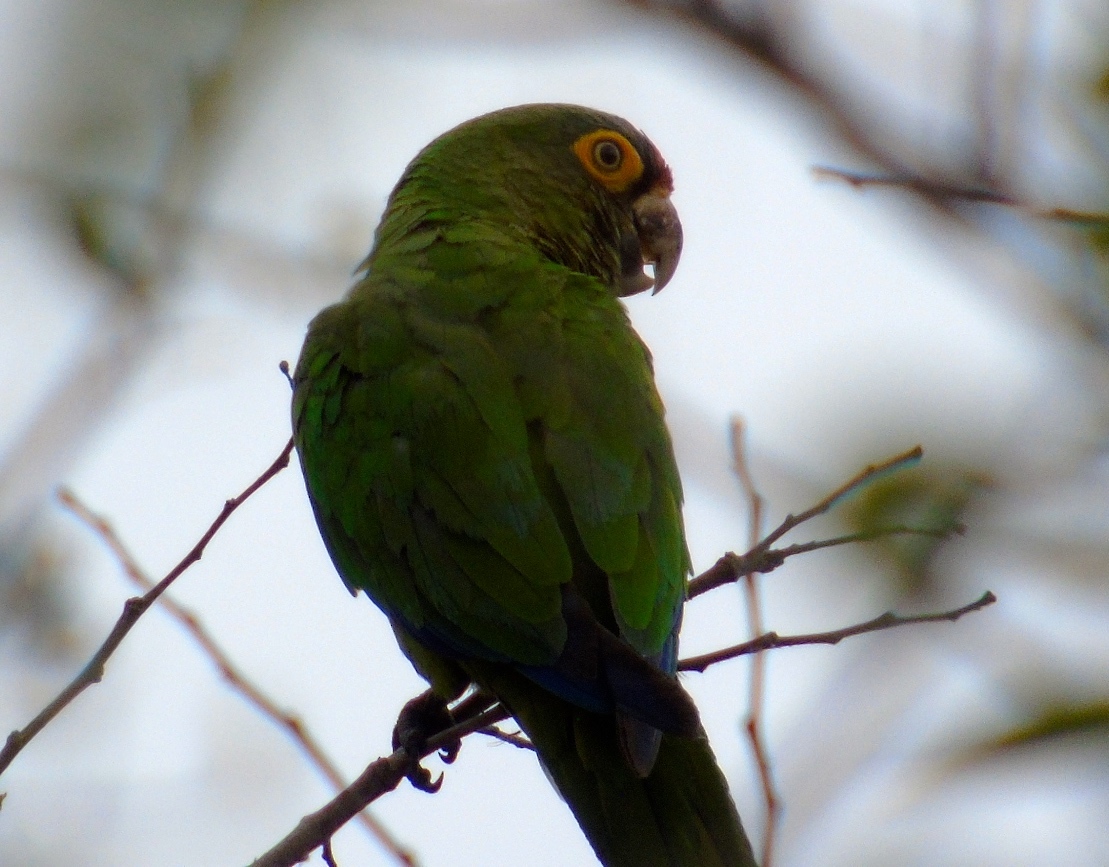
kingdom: Animalia
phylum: Chordata
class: Aves
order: Psittaciformes
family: Psittacidae
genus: Aratinga
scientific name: Aratinga canicularis
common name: Orange-fronted parakeet
